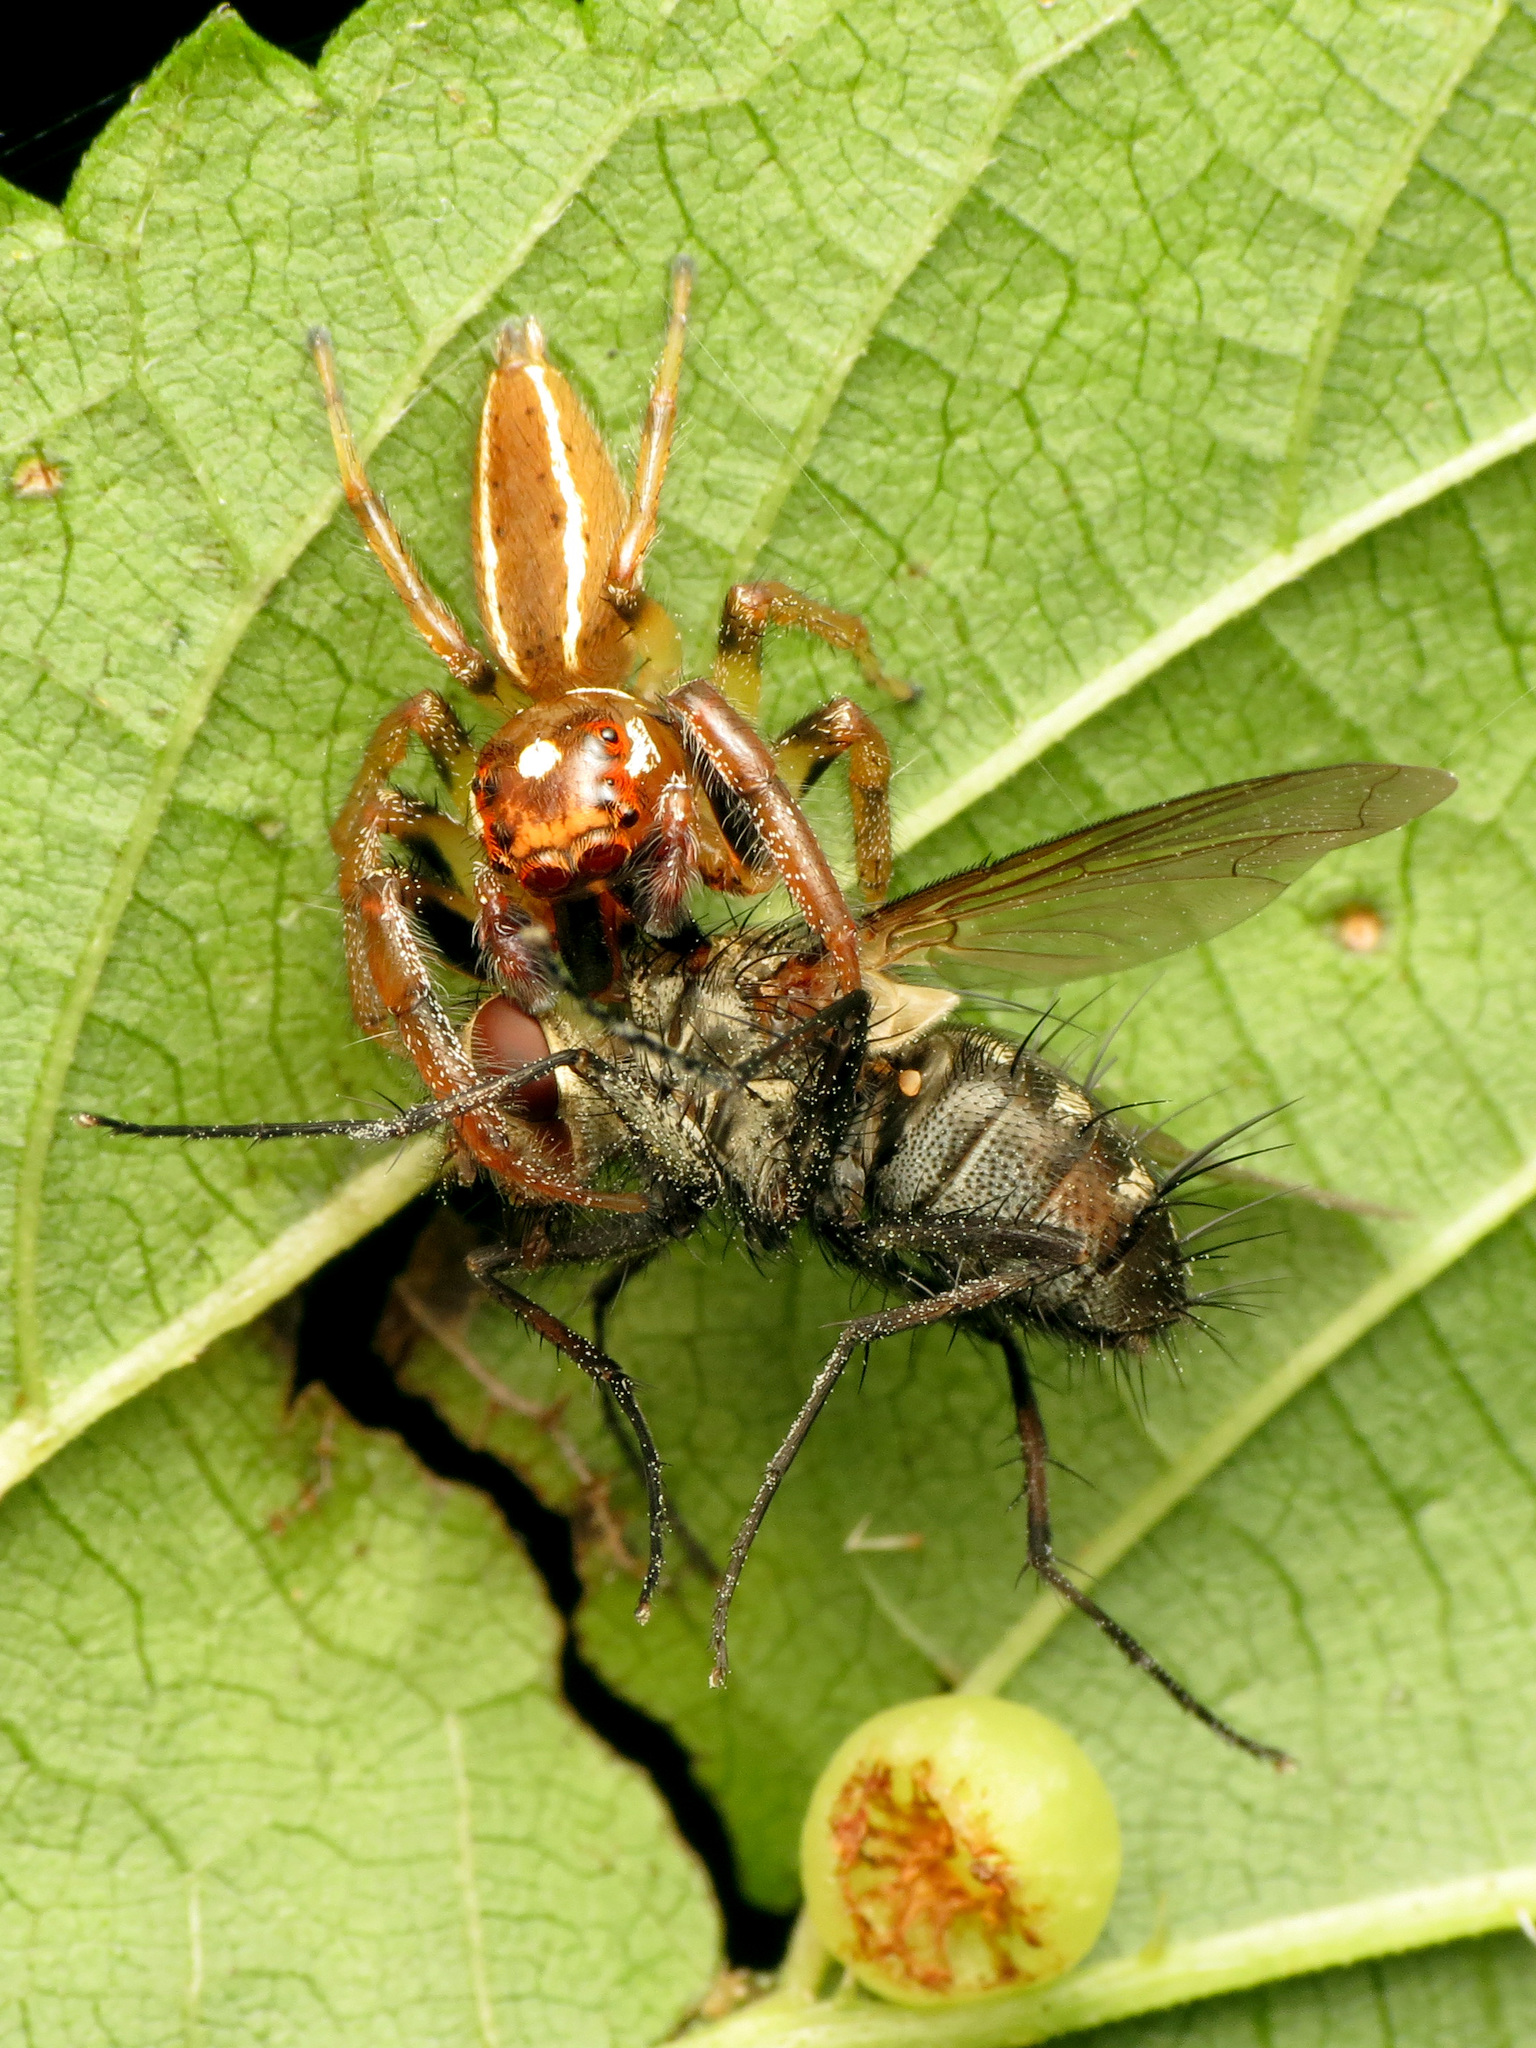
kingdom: Animalia
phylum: Arthropoda
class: Arachnida
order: Araneae
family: Salticidae
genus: Colonus
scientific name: Colonus sylvanus
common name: Jumping spiders
